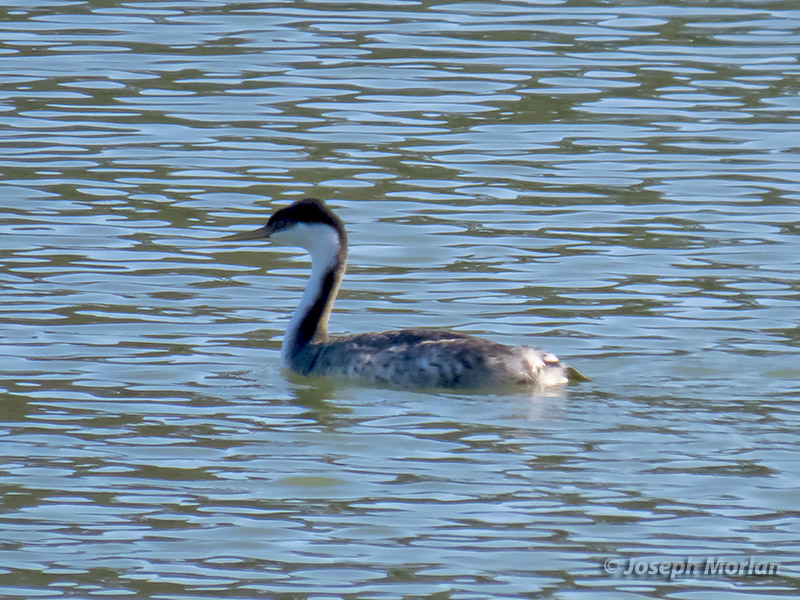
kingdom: Animalia
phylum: Chordata
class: Aves
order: Podicipediformes
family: Podicipedidae
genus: Aechmophorus
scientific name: Aechmophorus occidentalis
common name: Western grebe
